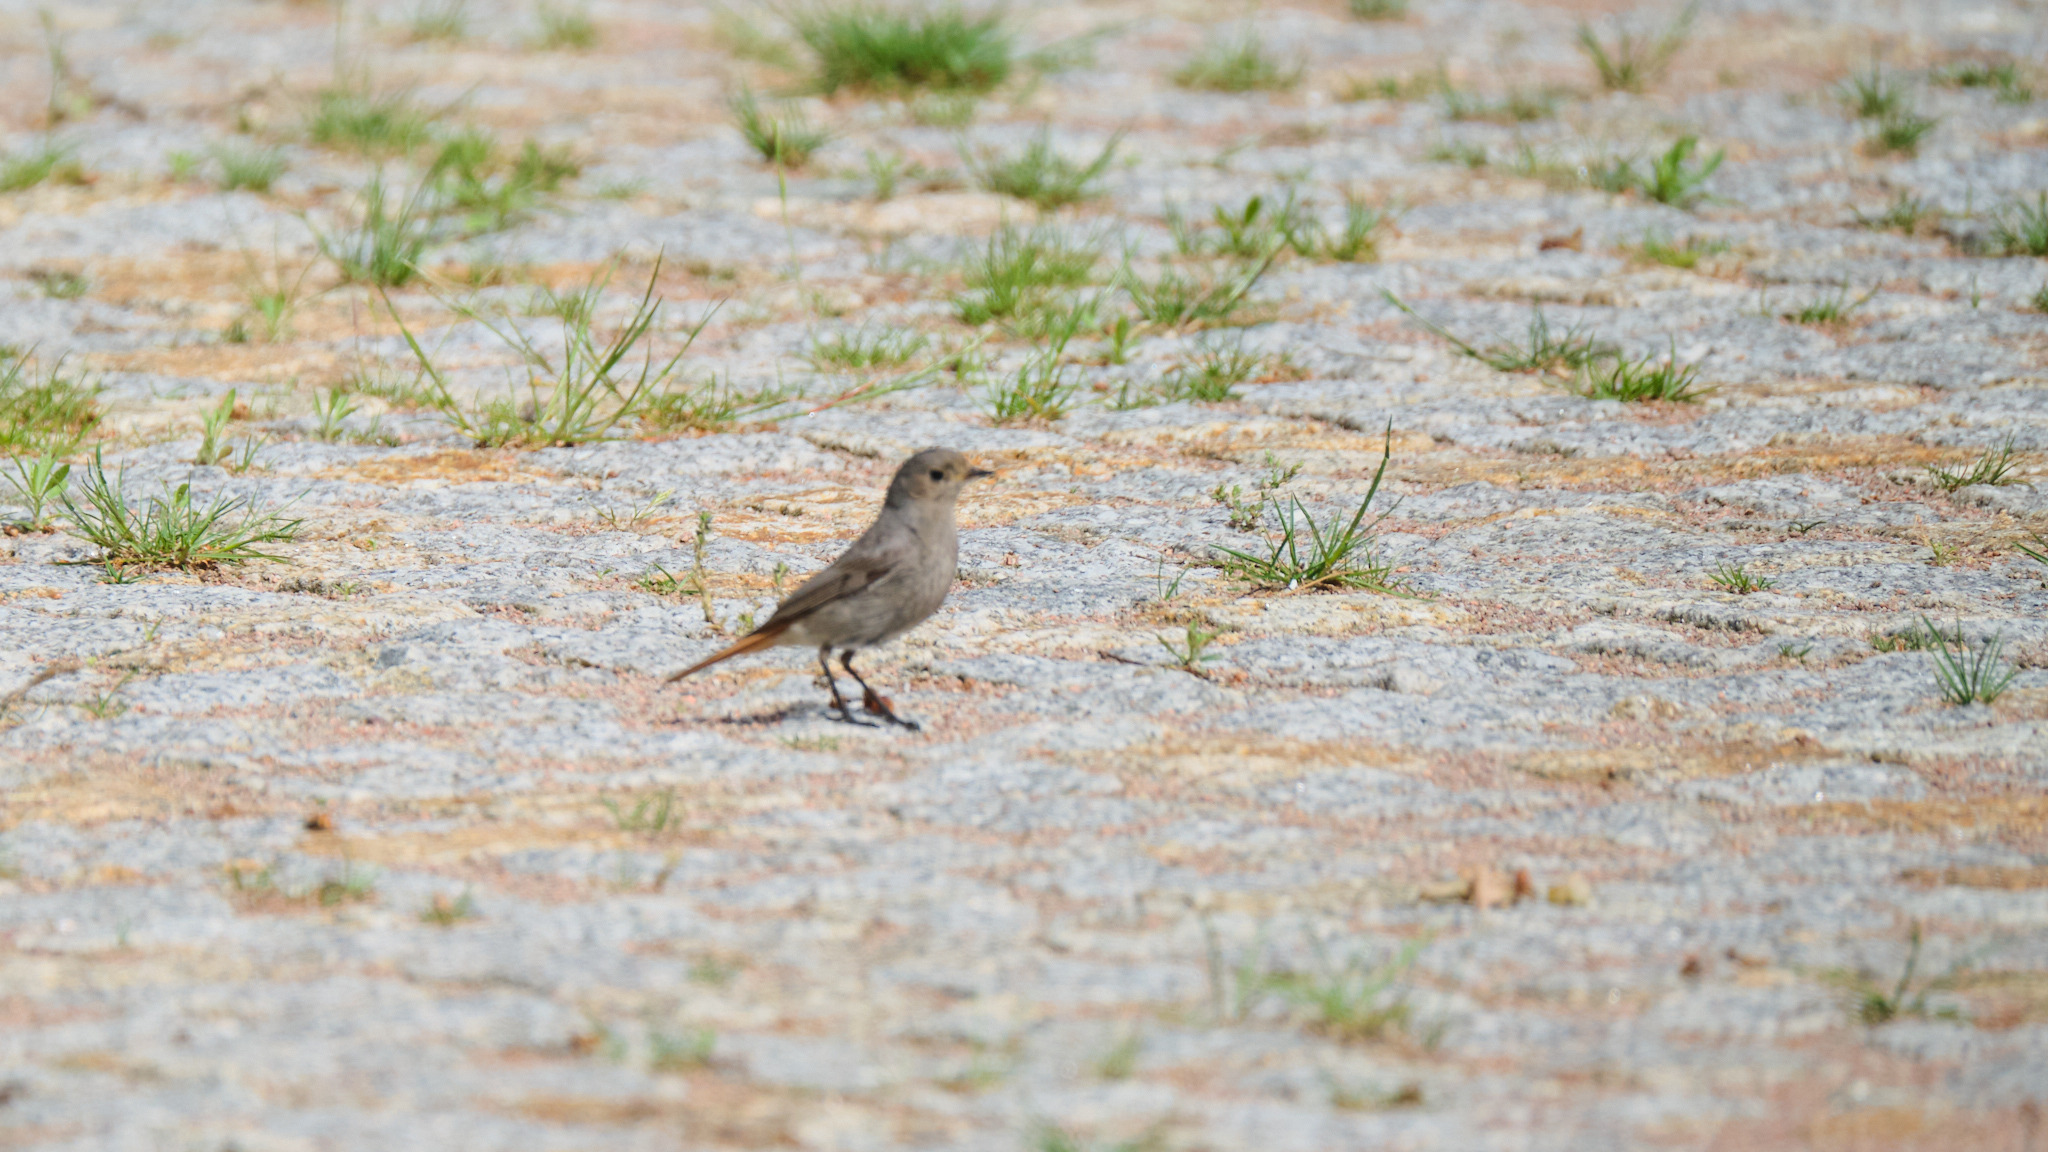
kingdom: Animalia
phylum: Chordata
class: Aves
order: Passeriformes
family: Muscicapidae
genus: Phoenicurus
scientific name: Phoenicurus ochruros
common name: Black redstart
